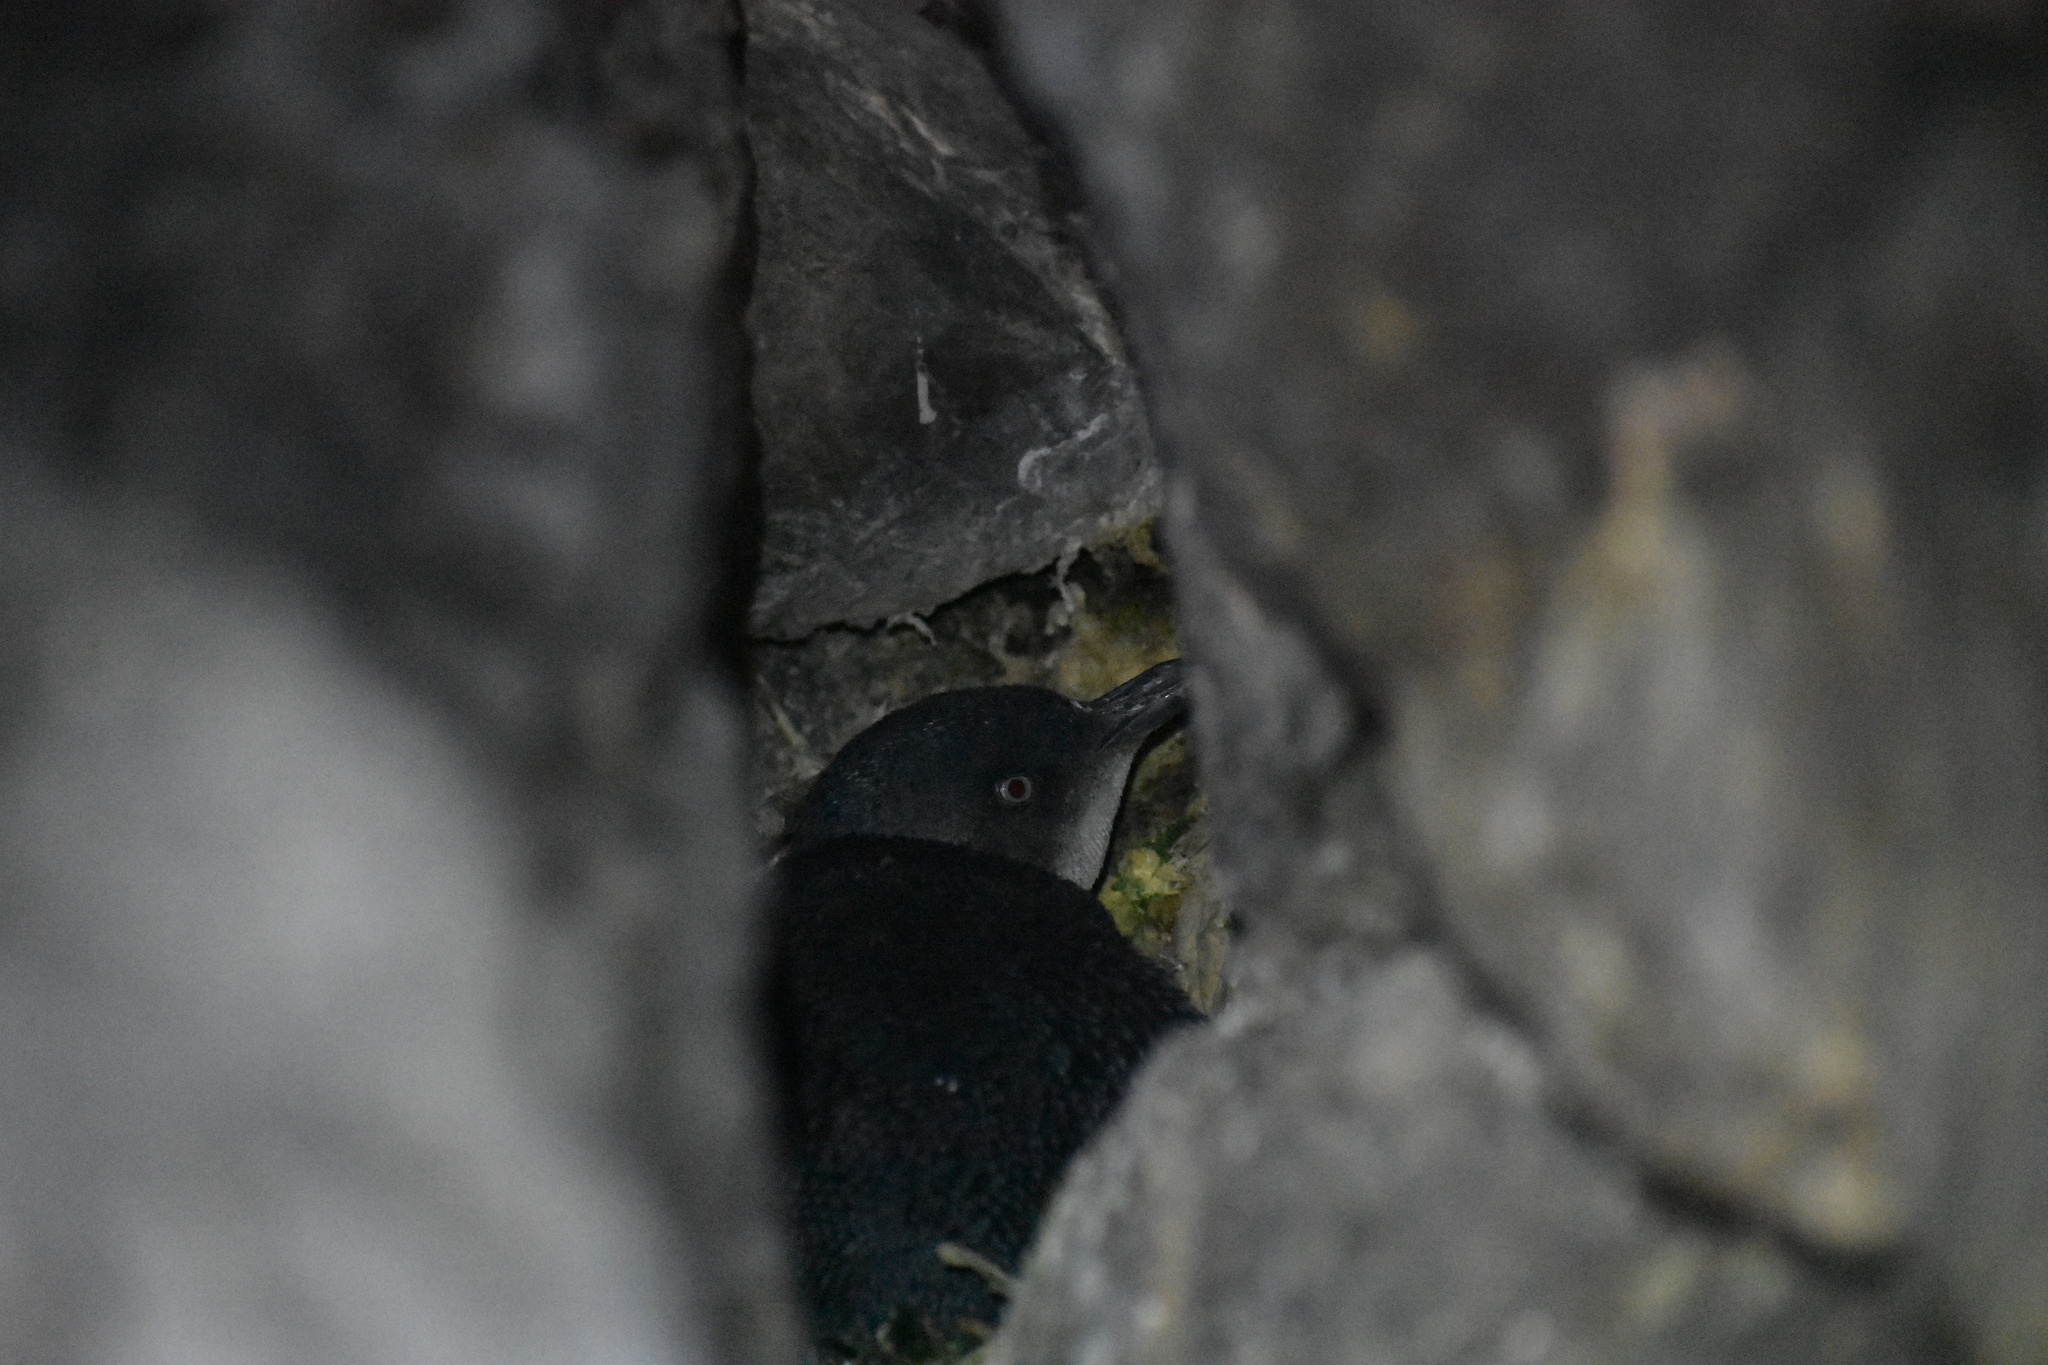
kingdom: Animalia
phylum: Chordata
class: Aves
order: Sphenisciformes
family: Spheniscidae
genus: Eudyptula
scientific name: Eudyptula minor
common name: Little penguin
